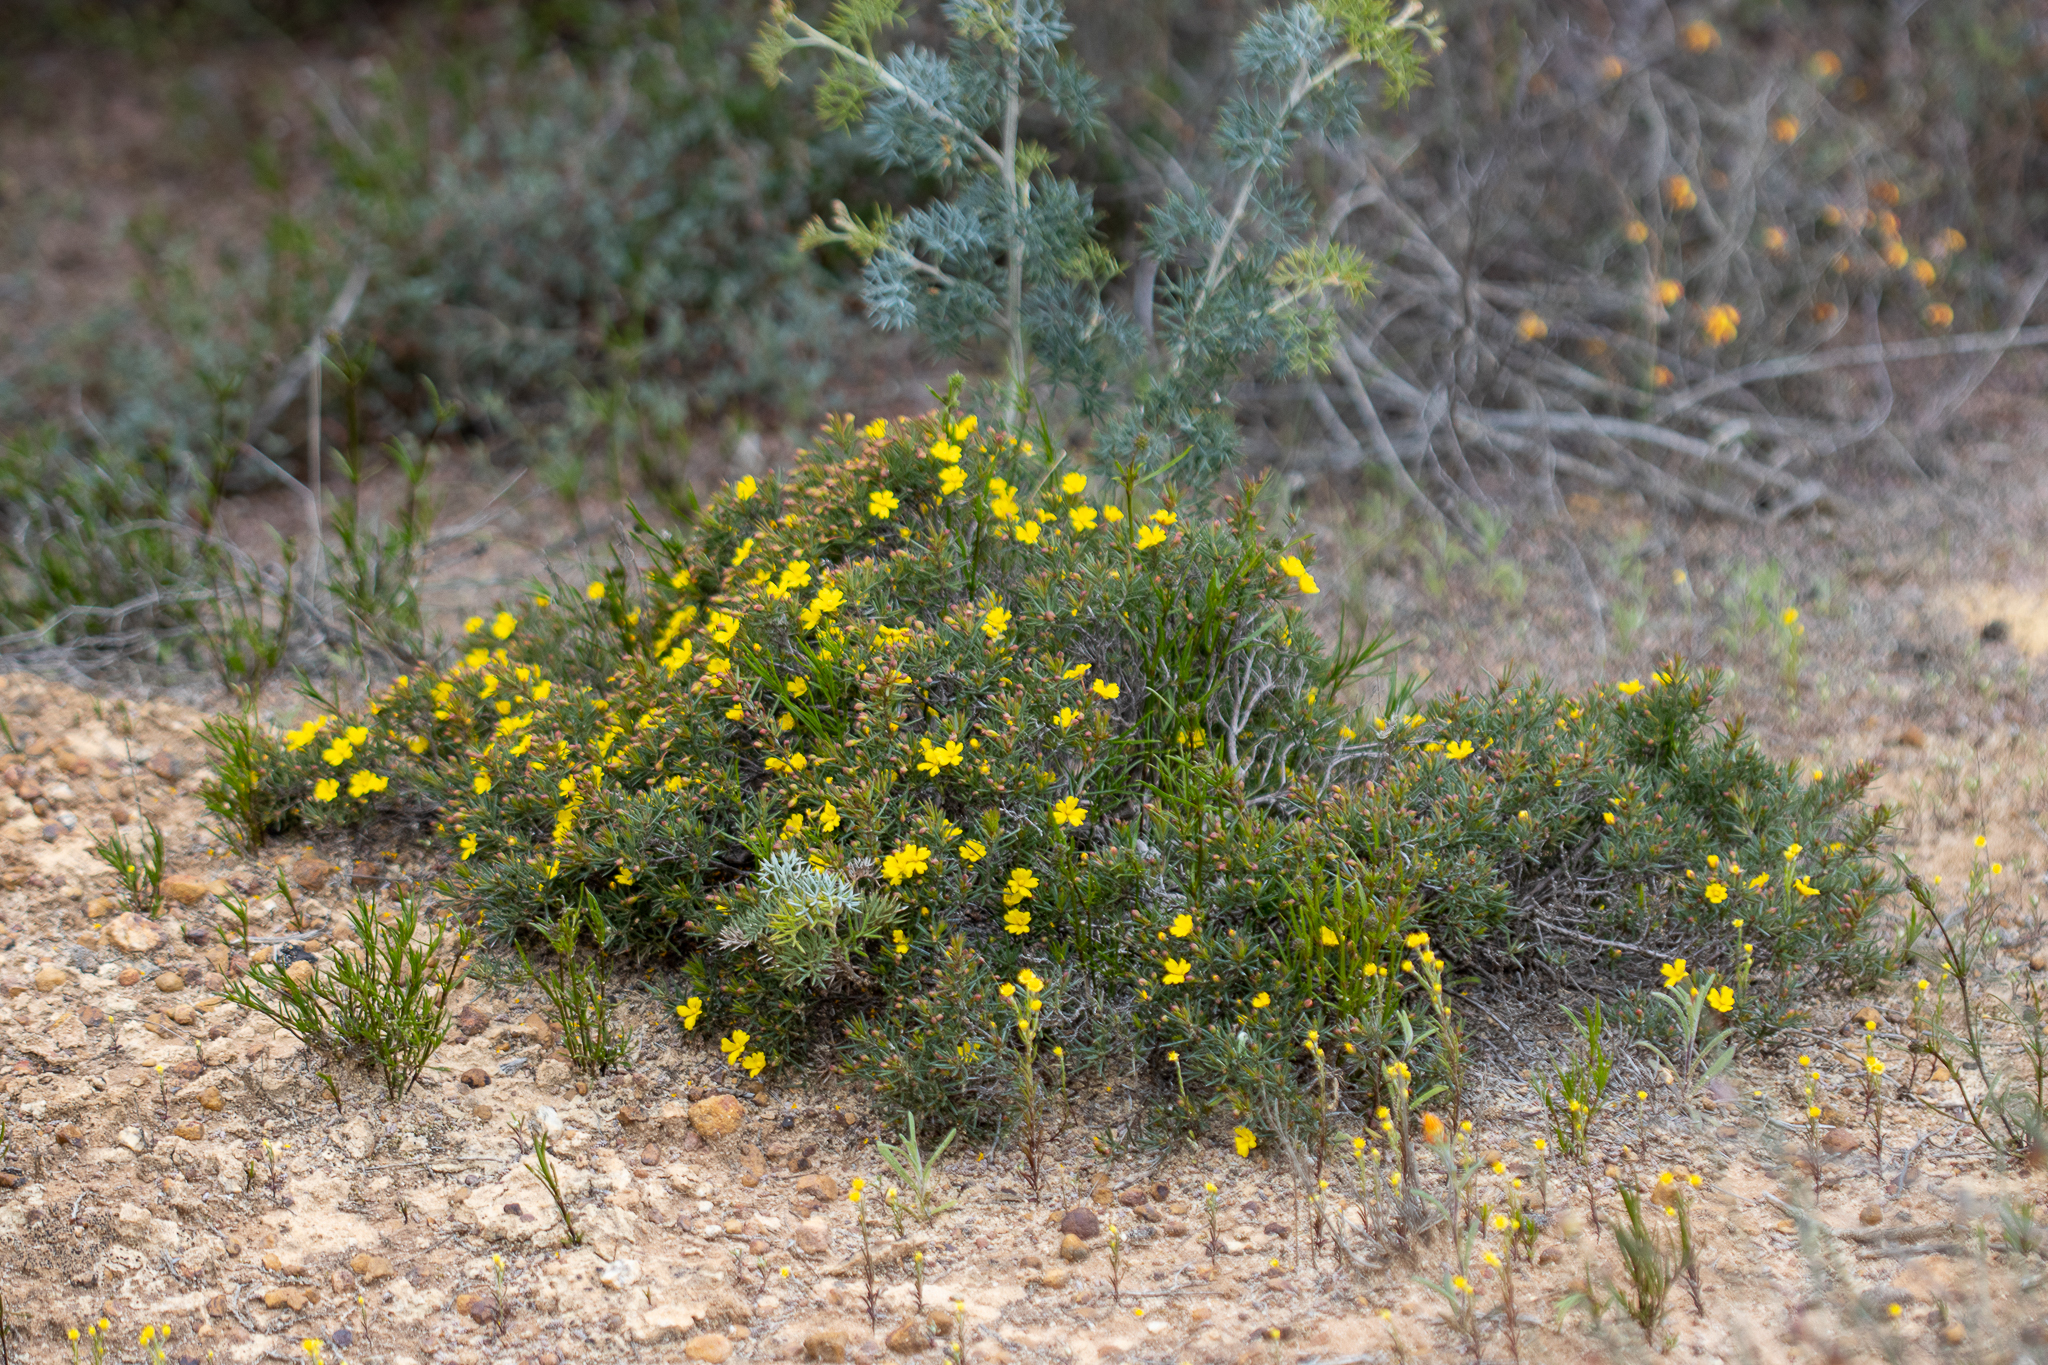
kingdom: Plantae
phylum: Tracheophyta
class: Magnoliopsida
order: Dilleniales
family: Dilleniaceae
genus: Hibbertia
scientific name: Hibbertia
